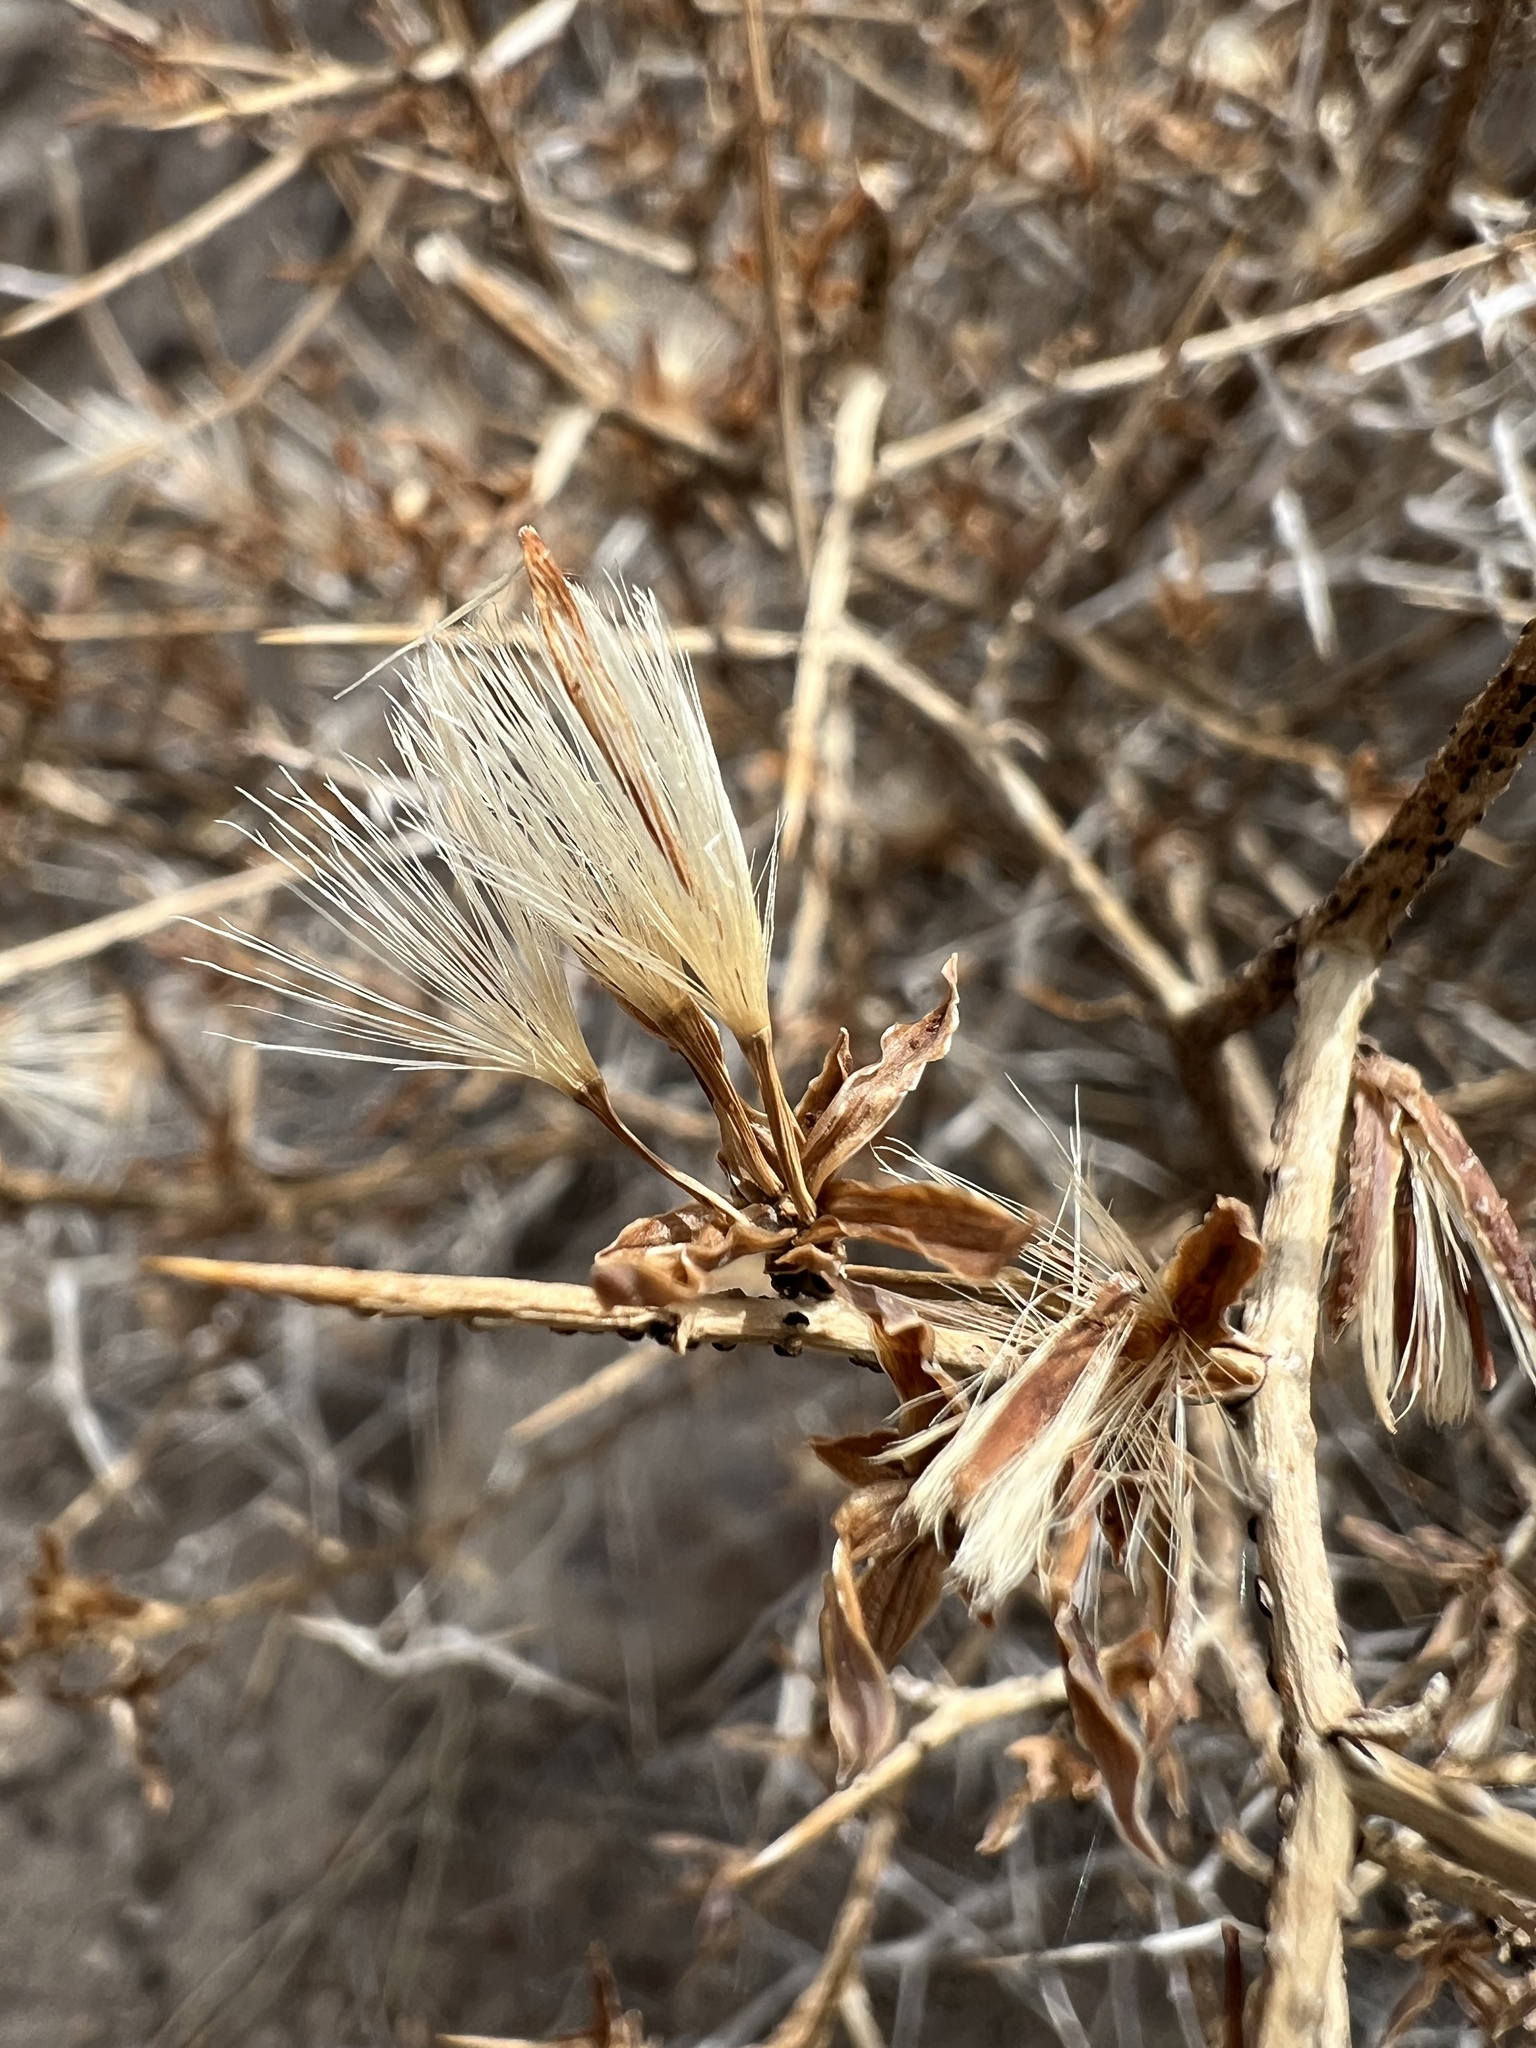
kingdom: Plantae
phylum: Tracheophyta
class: Magnoliopsida
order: Asterales
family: Asteraceae
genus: Pleiacanthus
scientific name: Pleiacanthus spinosus
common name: Thorny skeleton-weed
